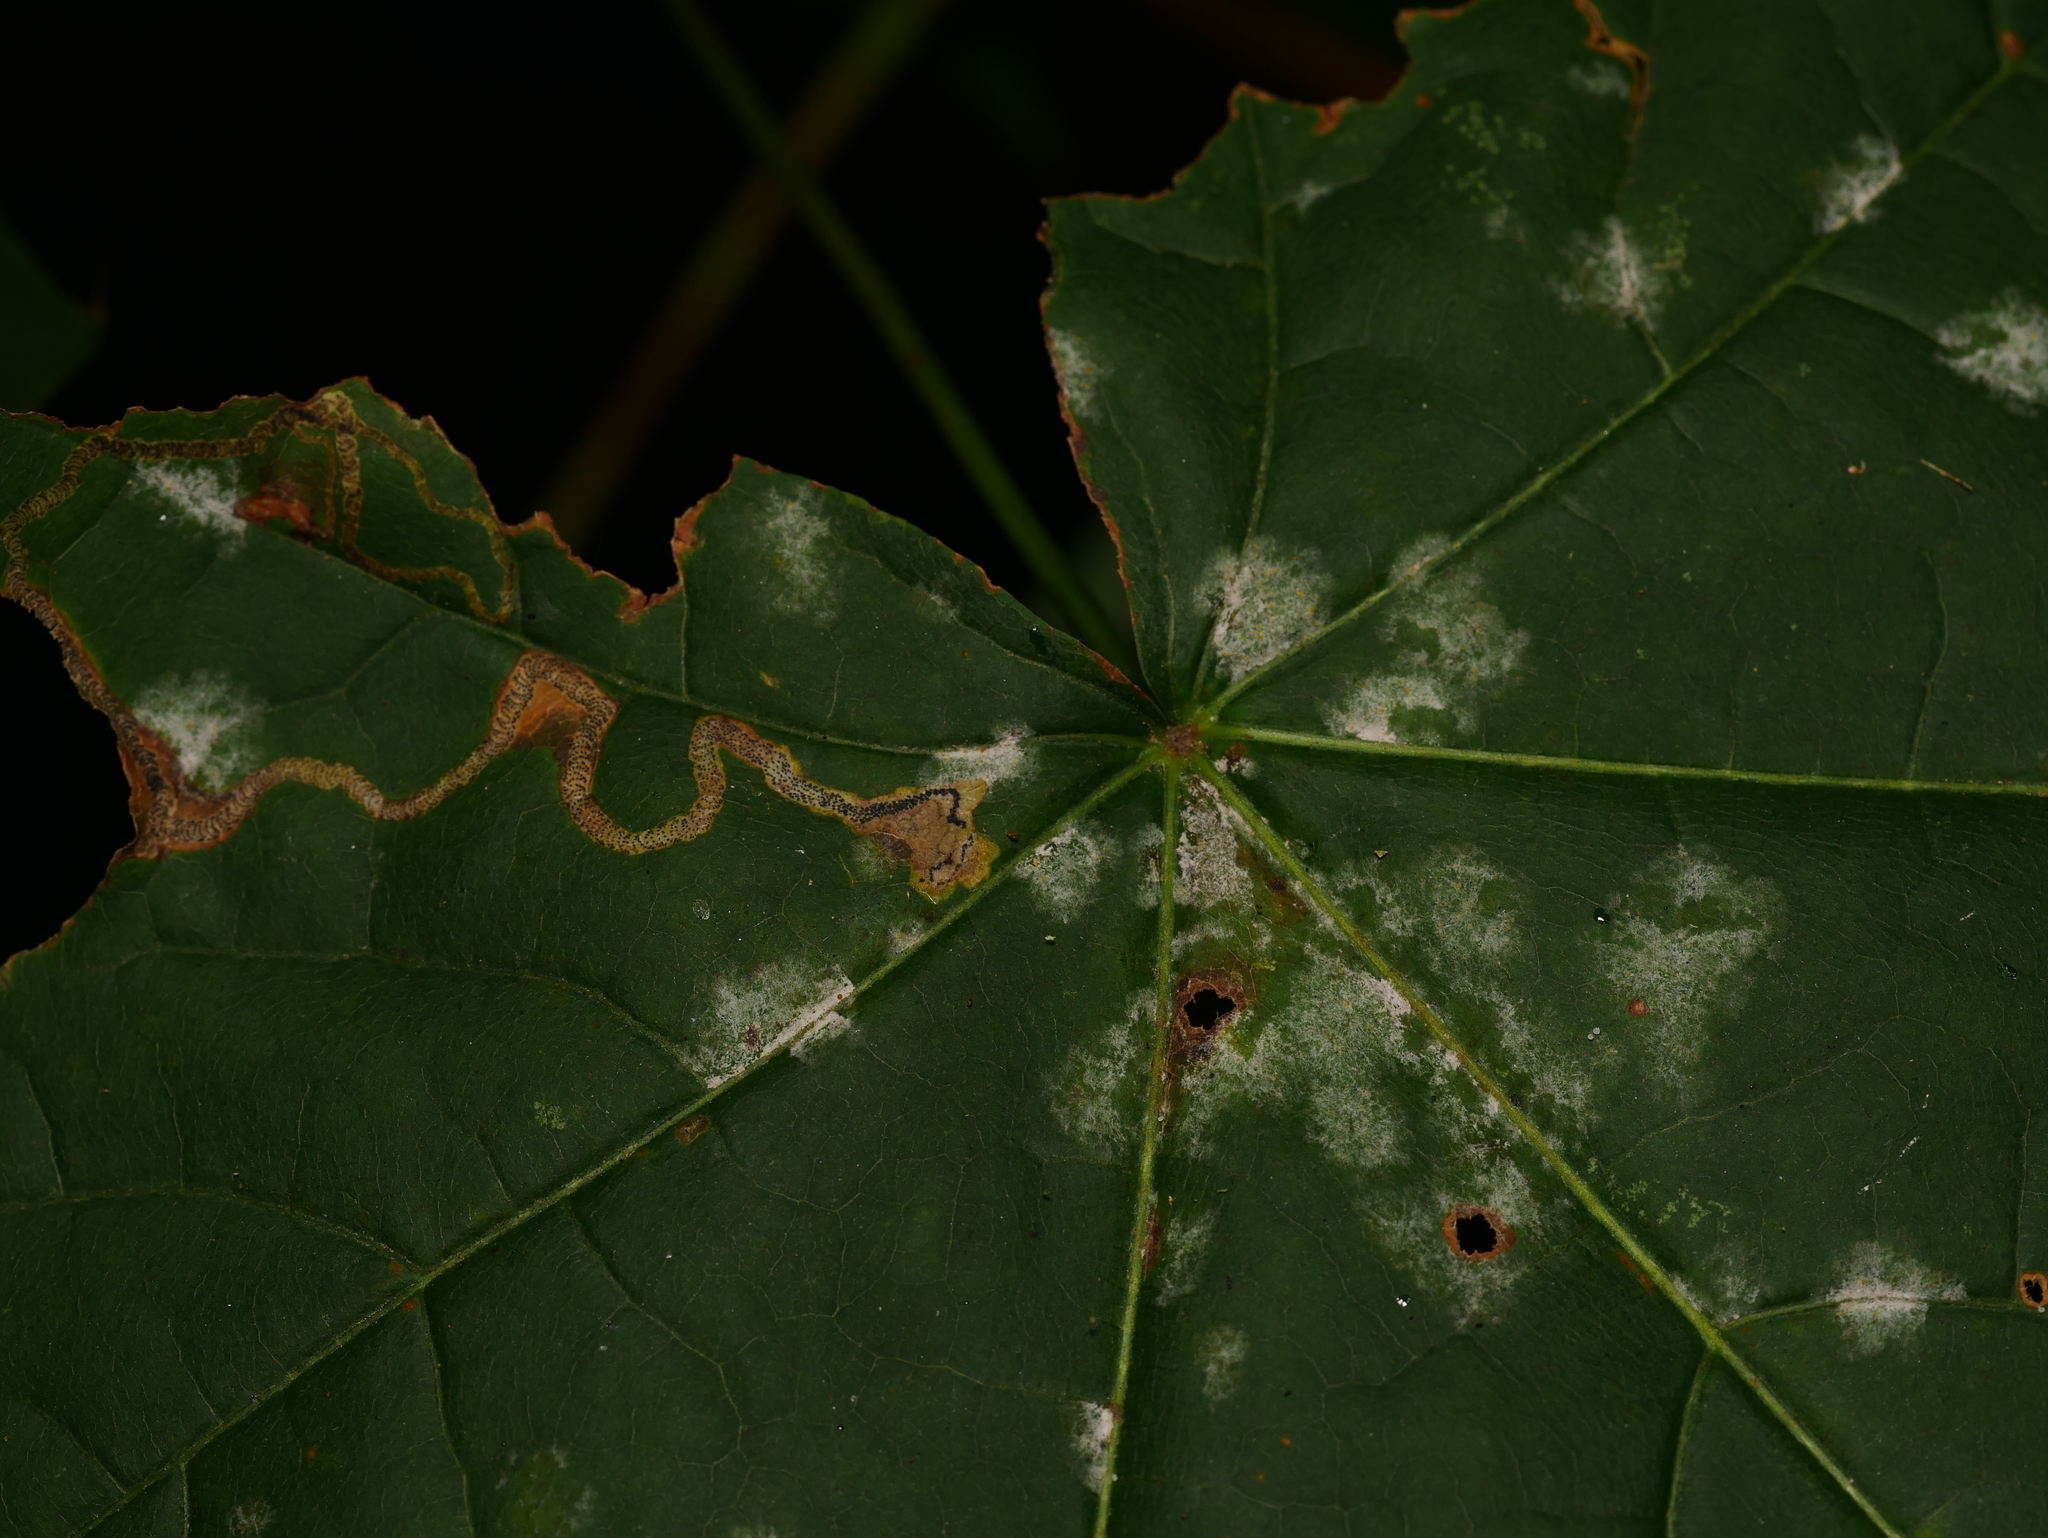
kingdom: Animalia
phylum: Arthropoda
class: Insecta
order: Lepidoptera
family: Nepticulidae
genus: Stigmella
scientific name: Stigmella aceris
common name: Scarce maple pigmy
